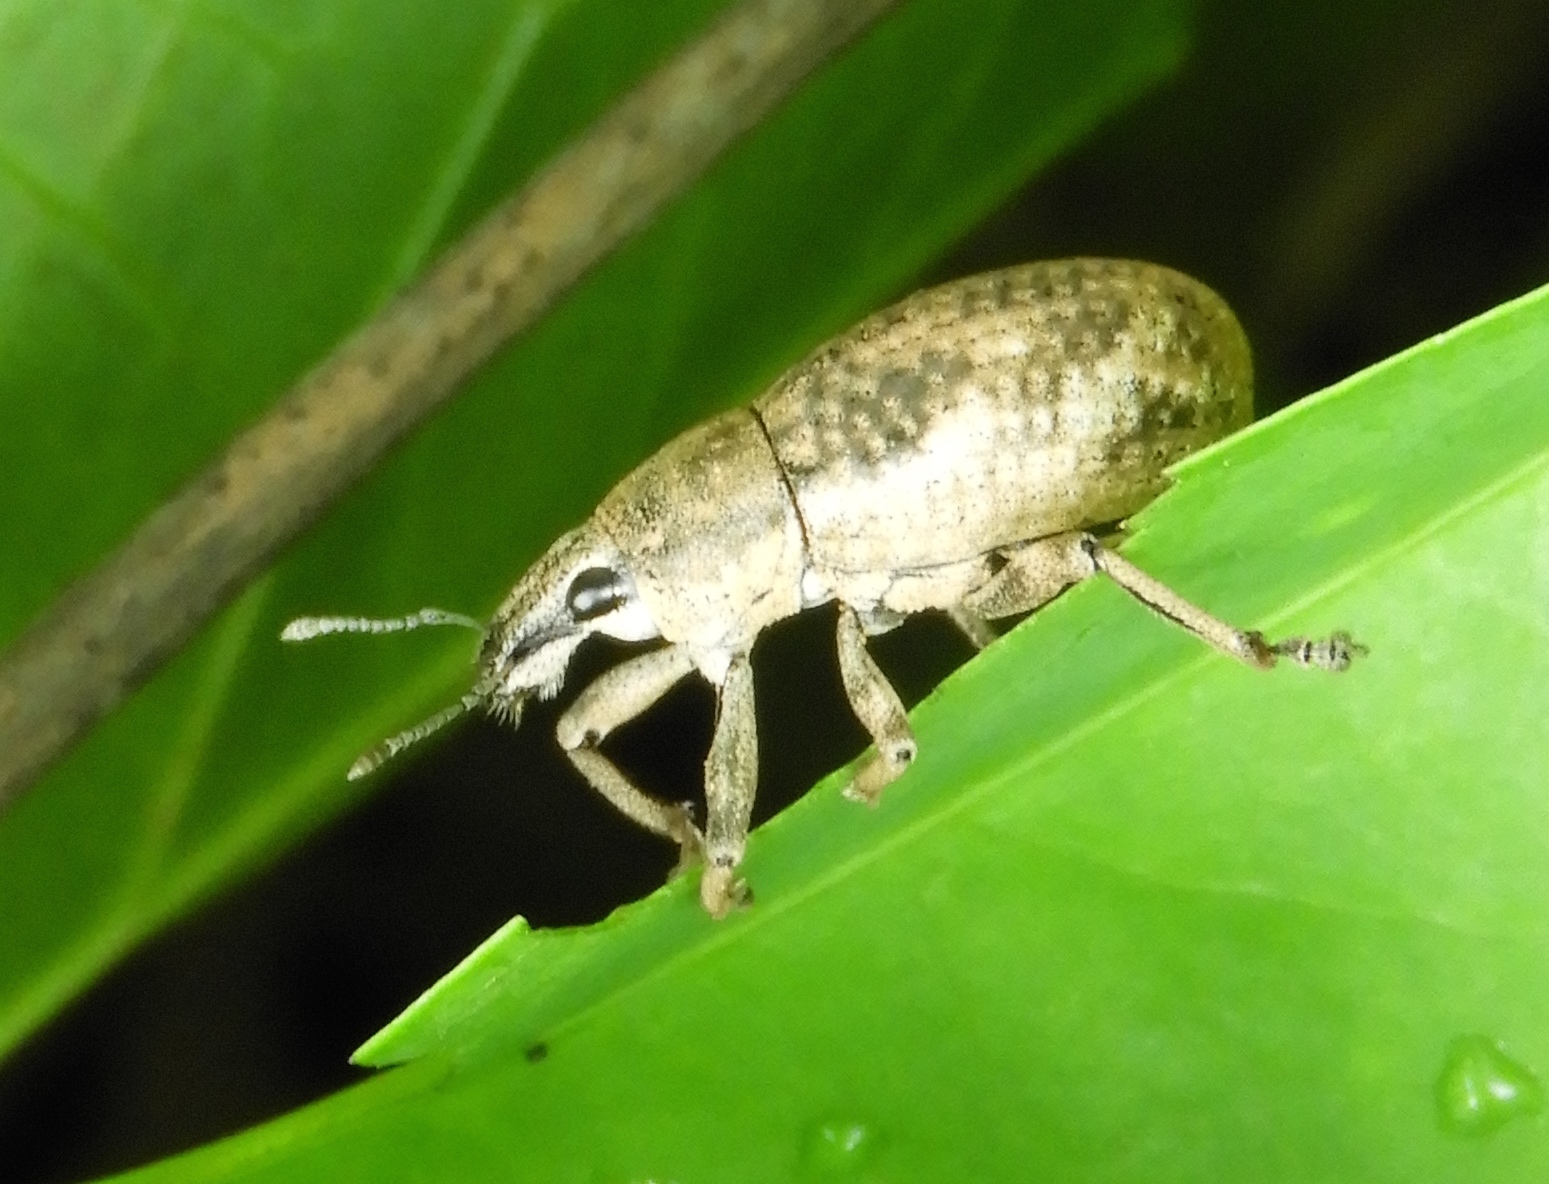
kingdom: Animalia
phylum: Arthropoda
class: Insecta
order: Coleoptera
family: Curculionidae
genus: Epicaerus
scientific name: Epicaerus
